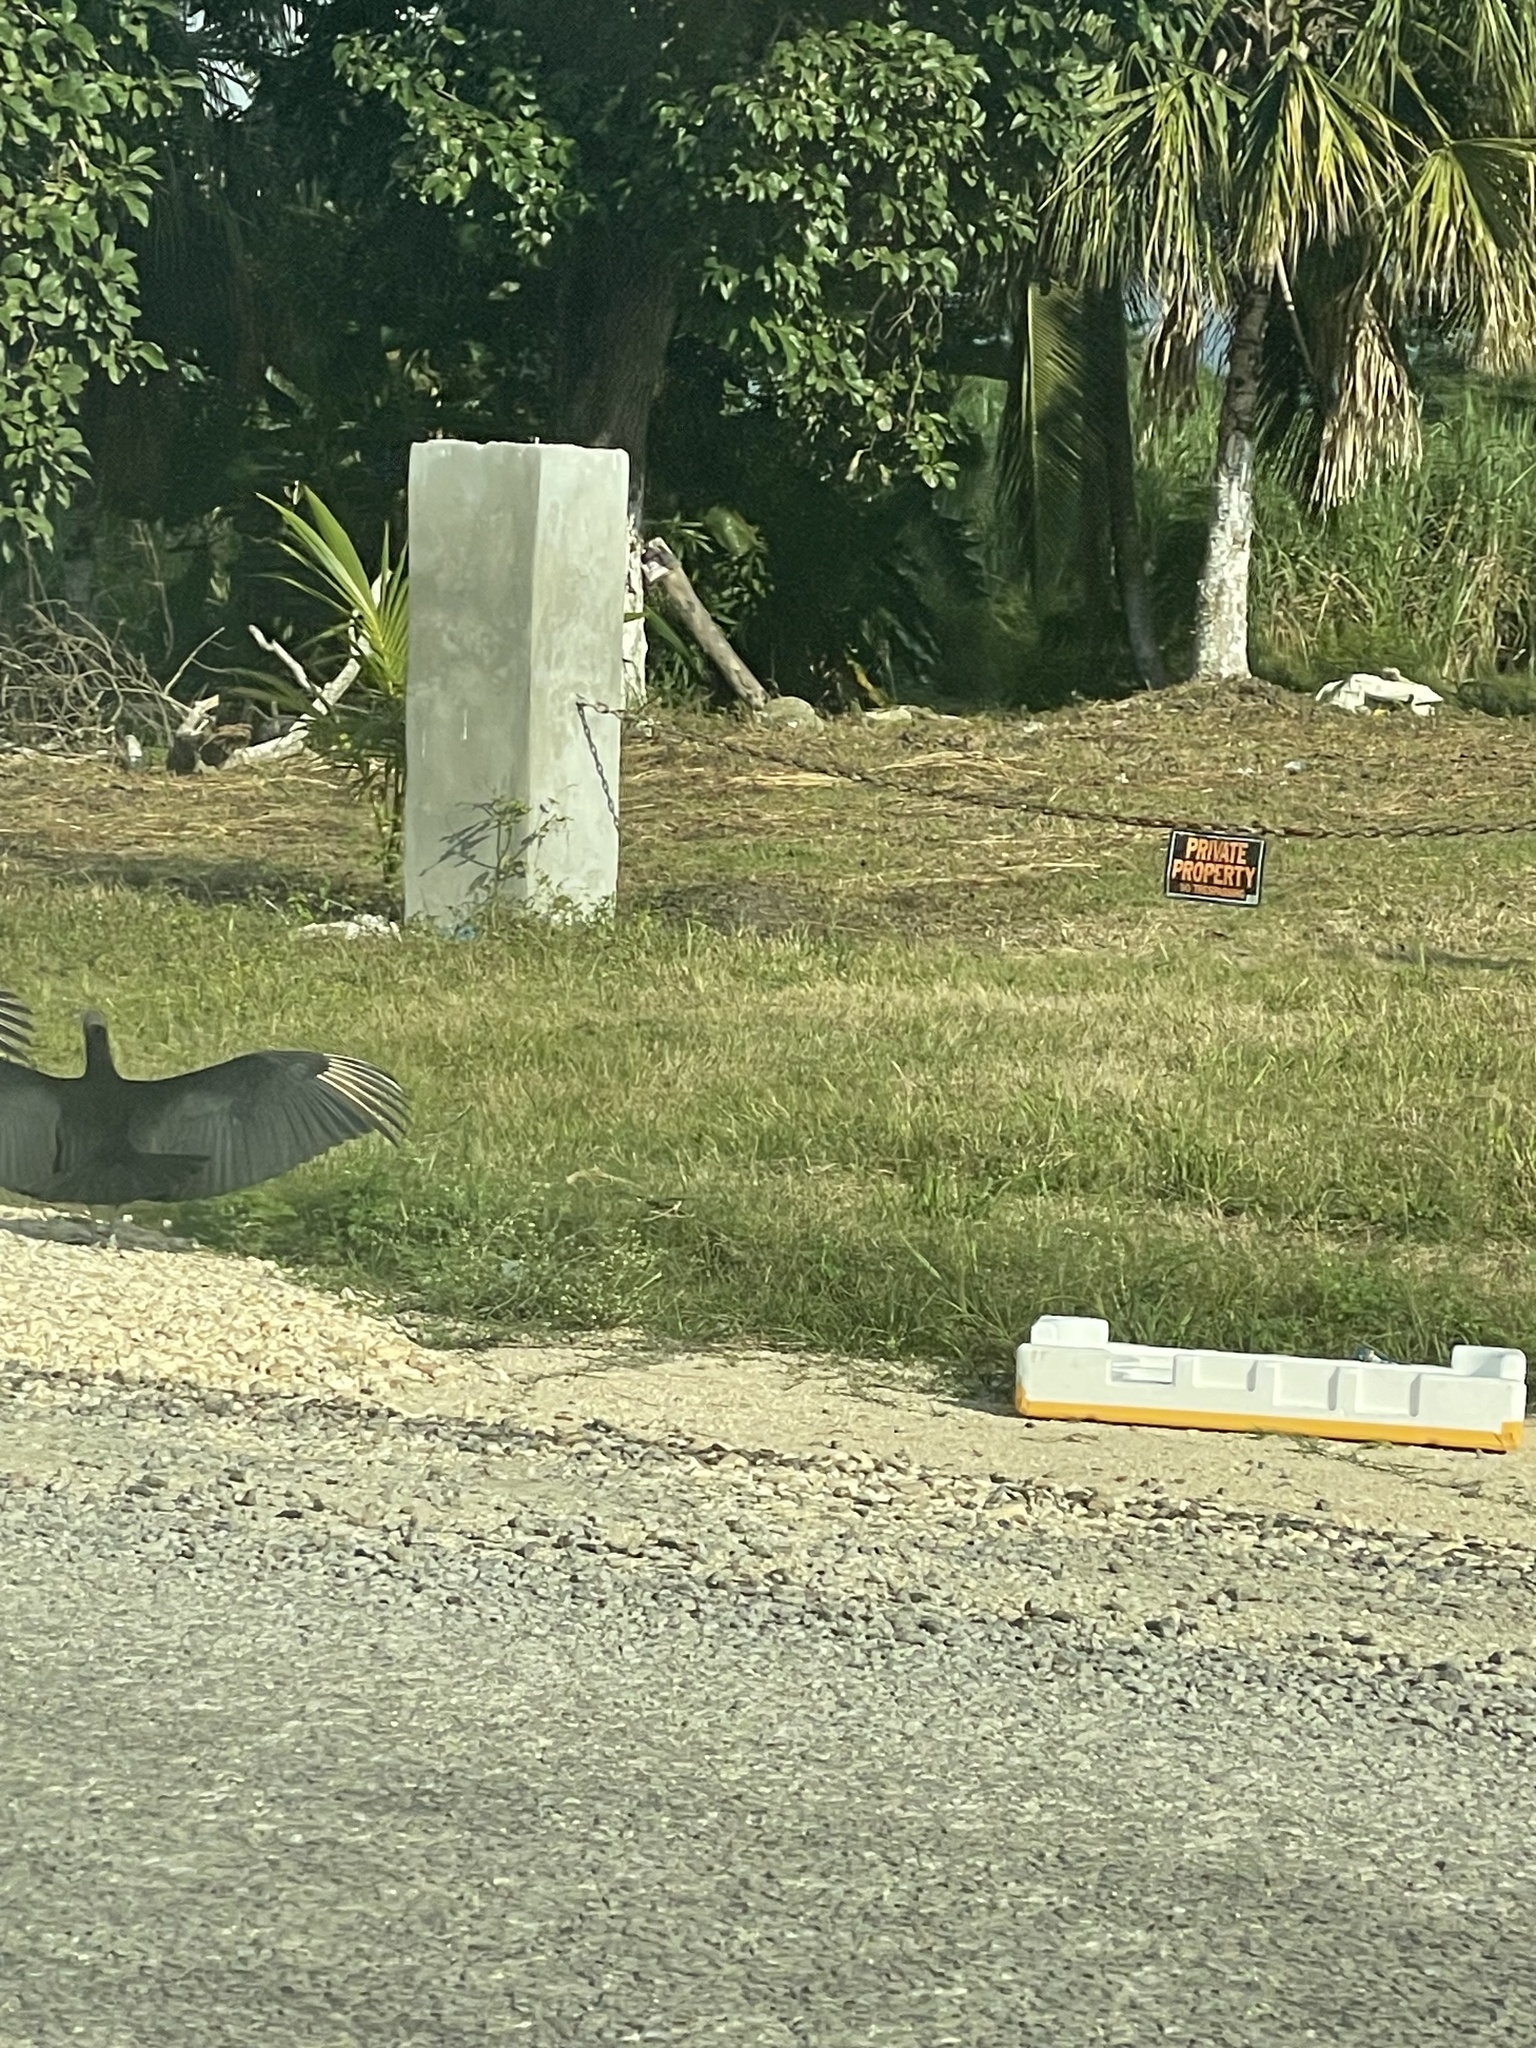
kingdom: Animalia
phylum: Chordata
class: Aves
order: Accipitriformes
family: Cathartidae
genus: Coragyps
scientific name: Coragyps atratus
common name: Black vulture
